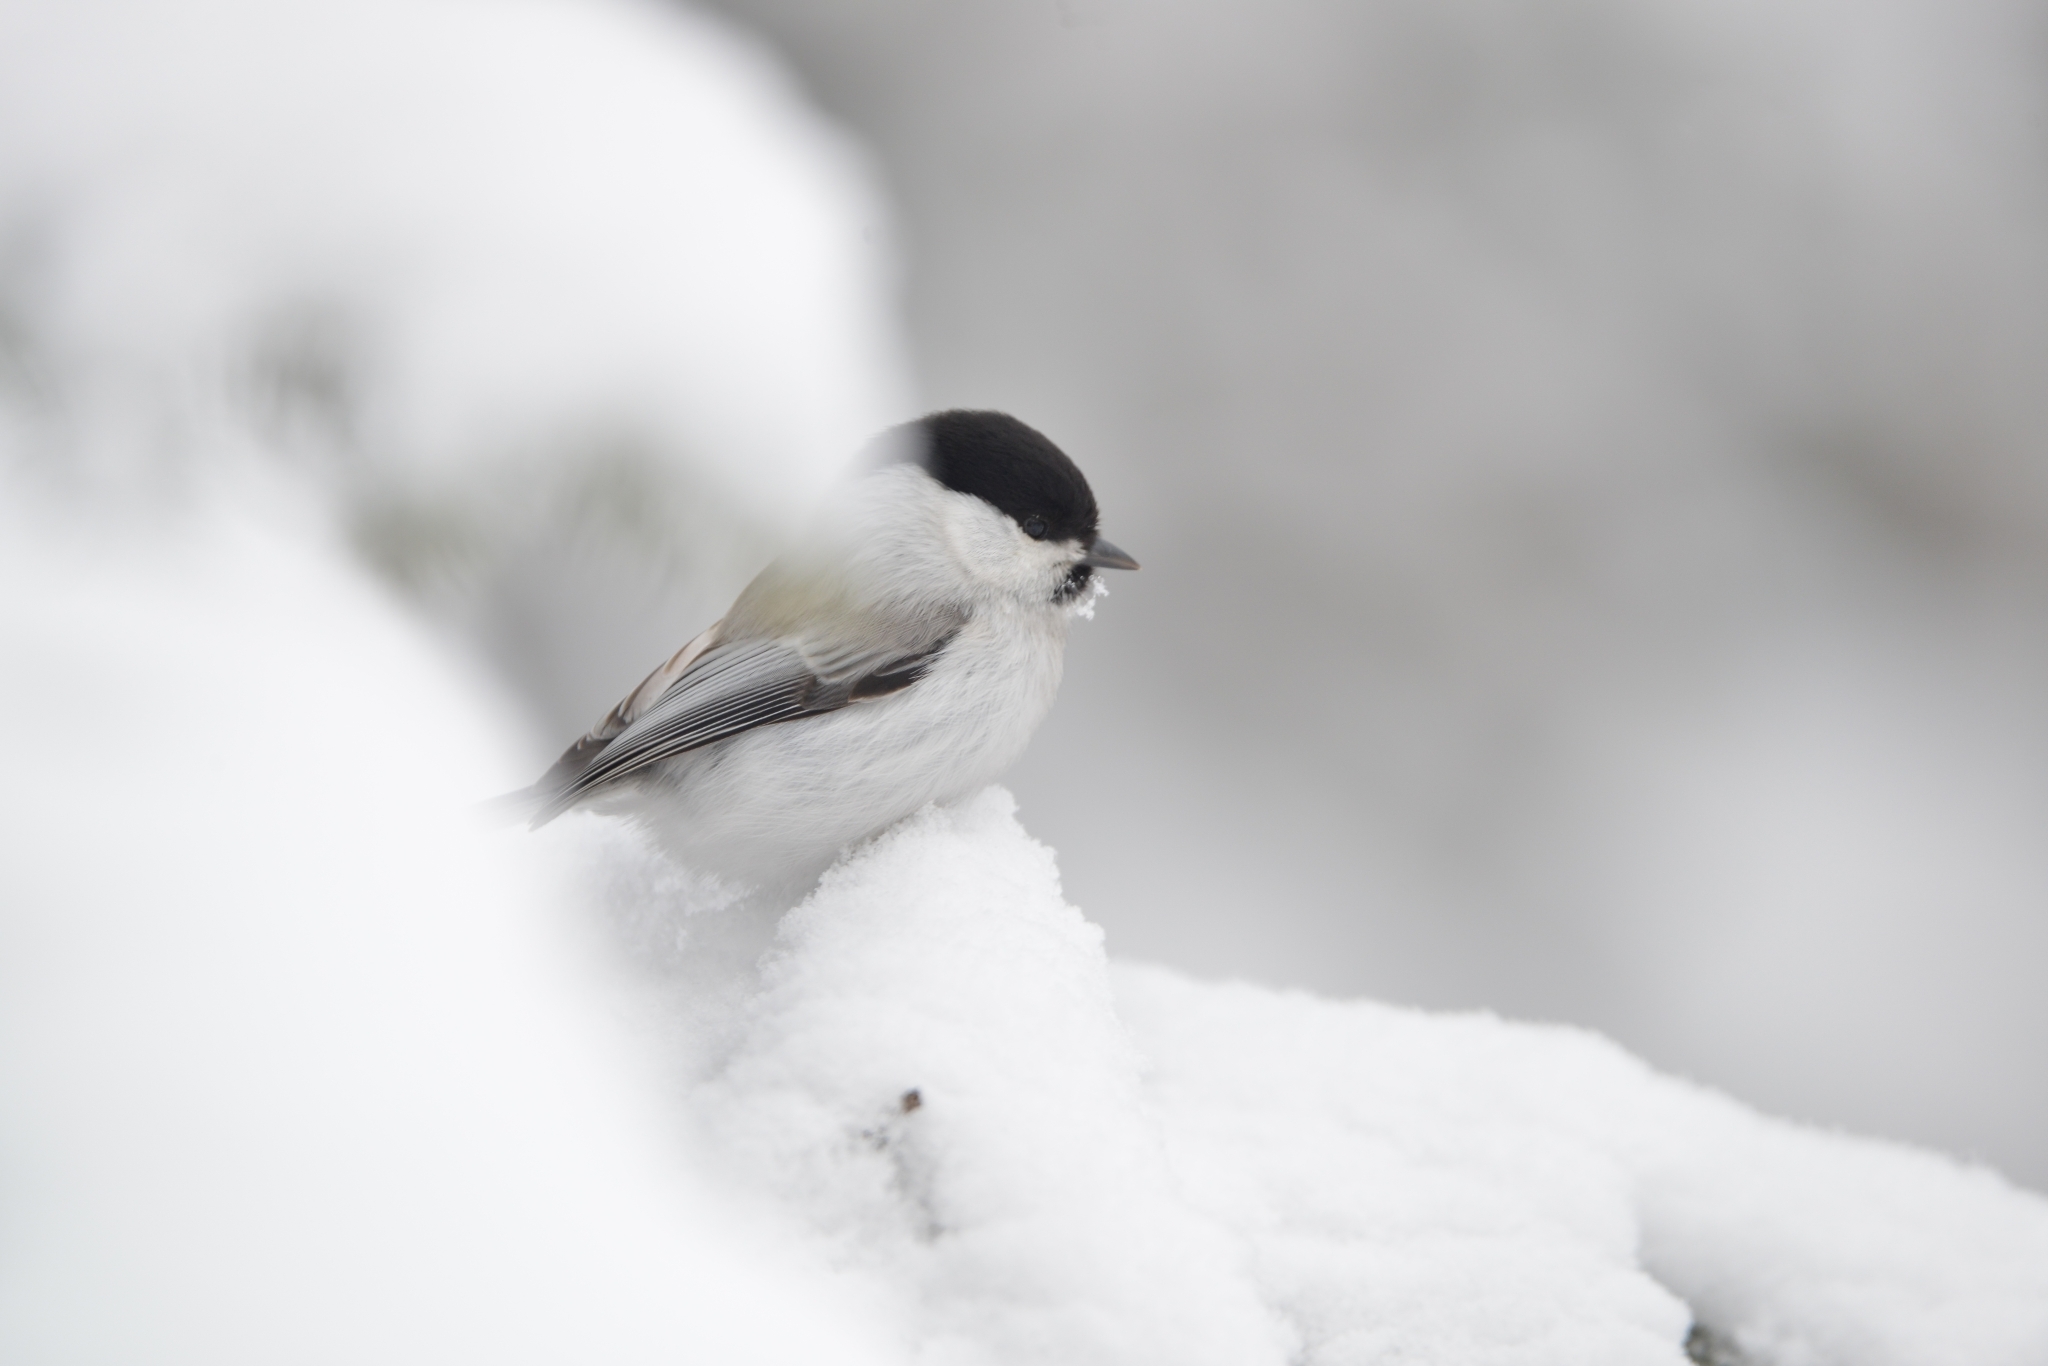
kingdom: Animalia
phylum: Chordata
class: Aves
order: Passeriformes
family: Paridae
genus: Poecile
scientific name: Poecile montanus
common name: Willow tit
